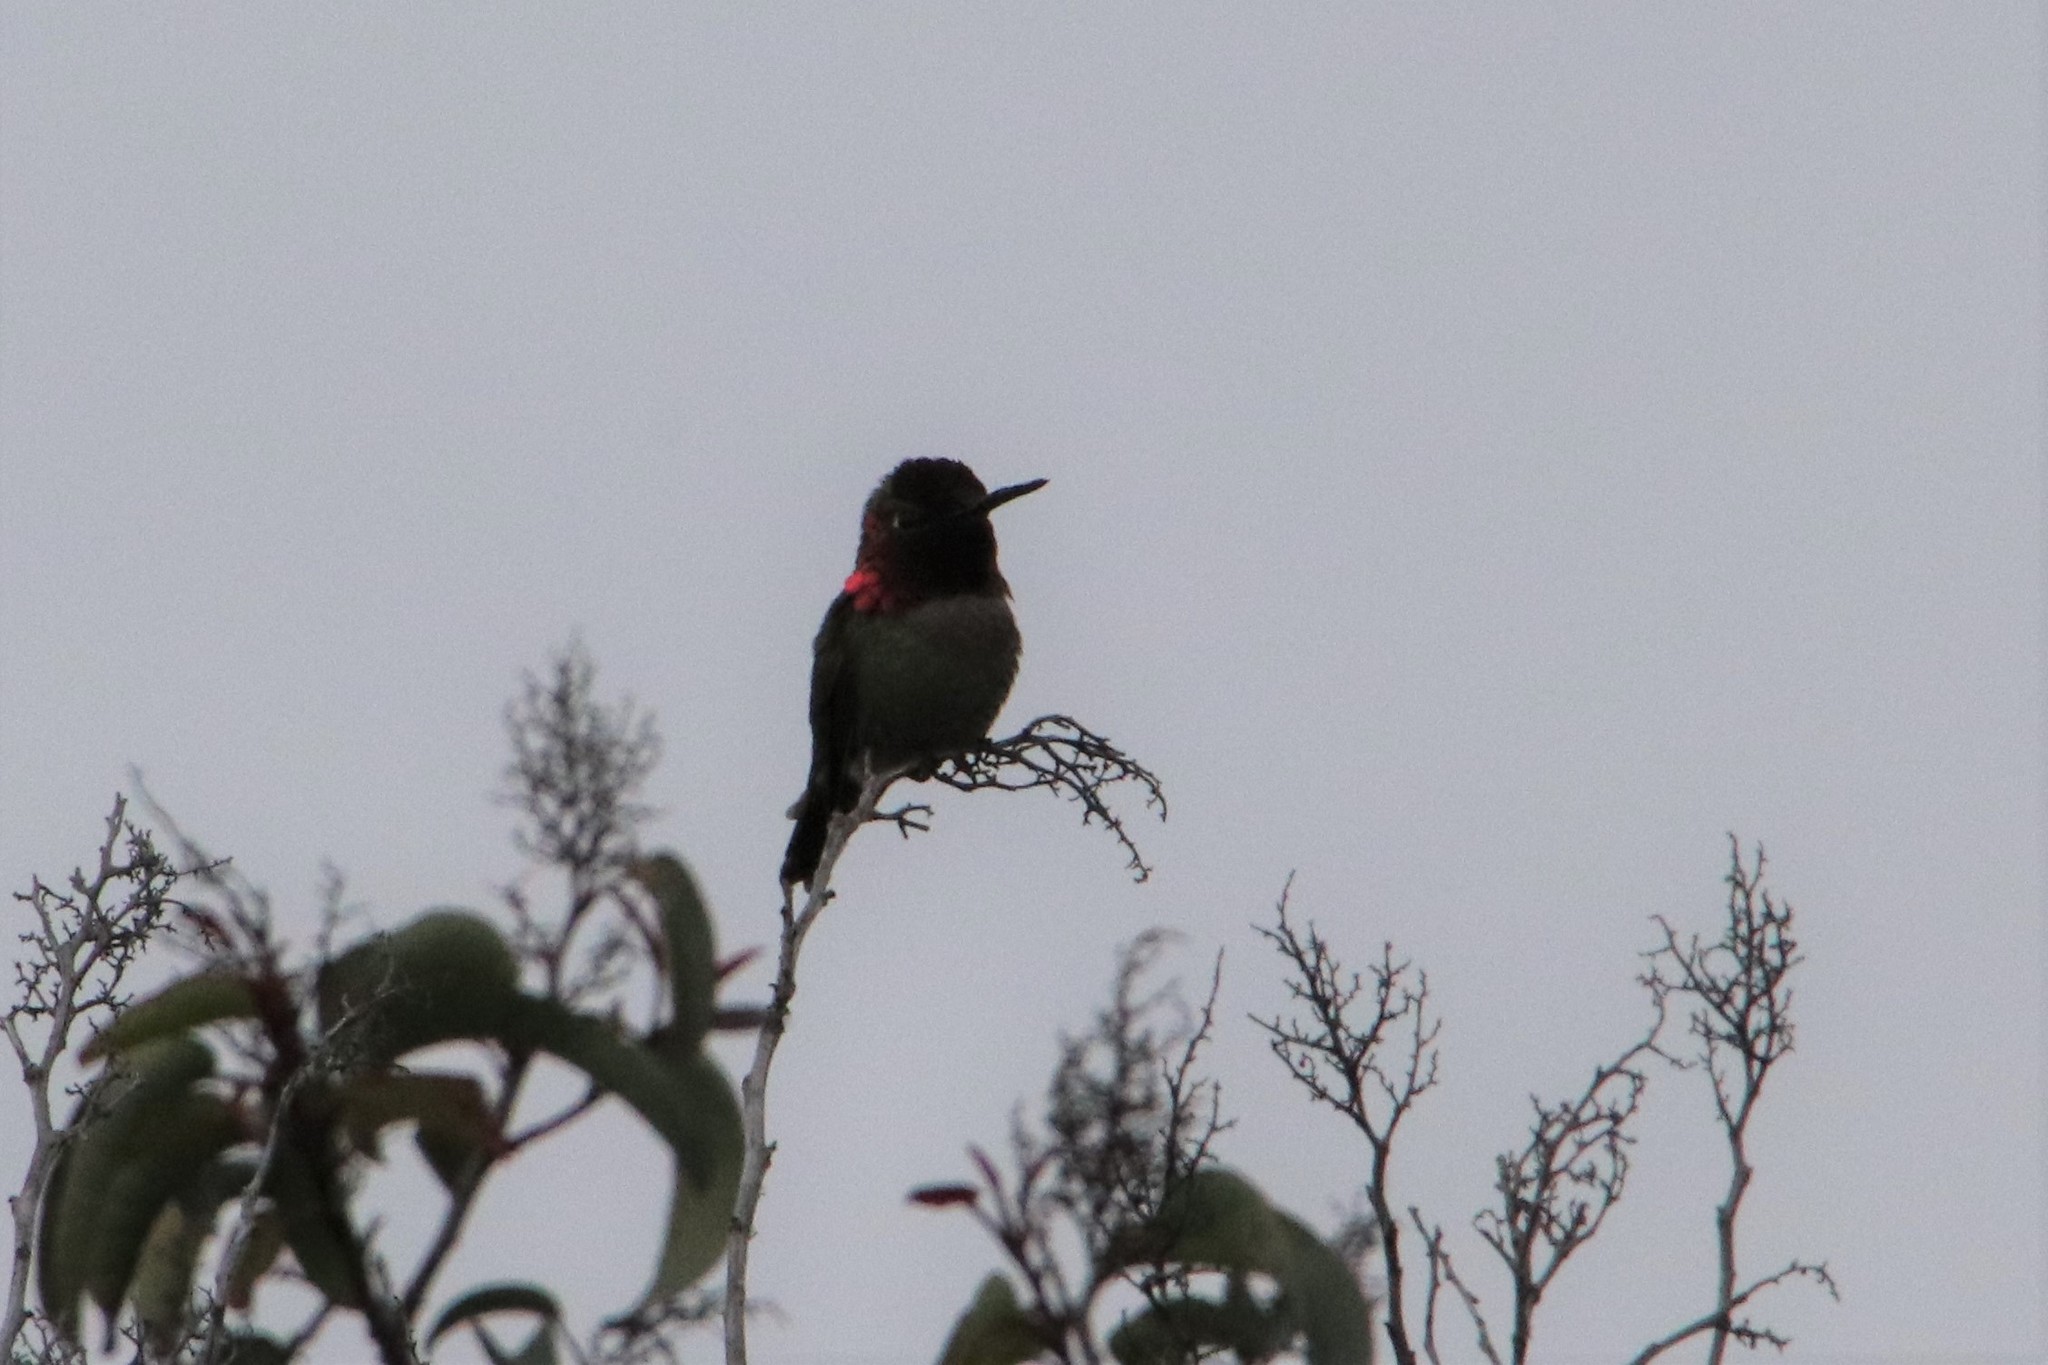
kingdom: Animalia
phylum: Chordata
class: Aves
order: Apodiformes
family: Trochilidae
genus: Calypte
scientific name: Calypte anna
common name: Anna's hummingbird
